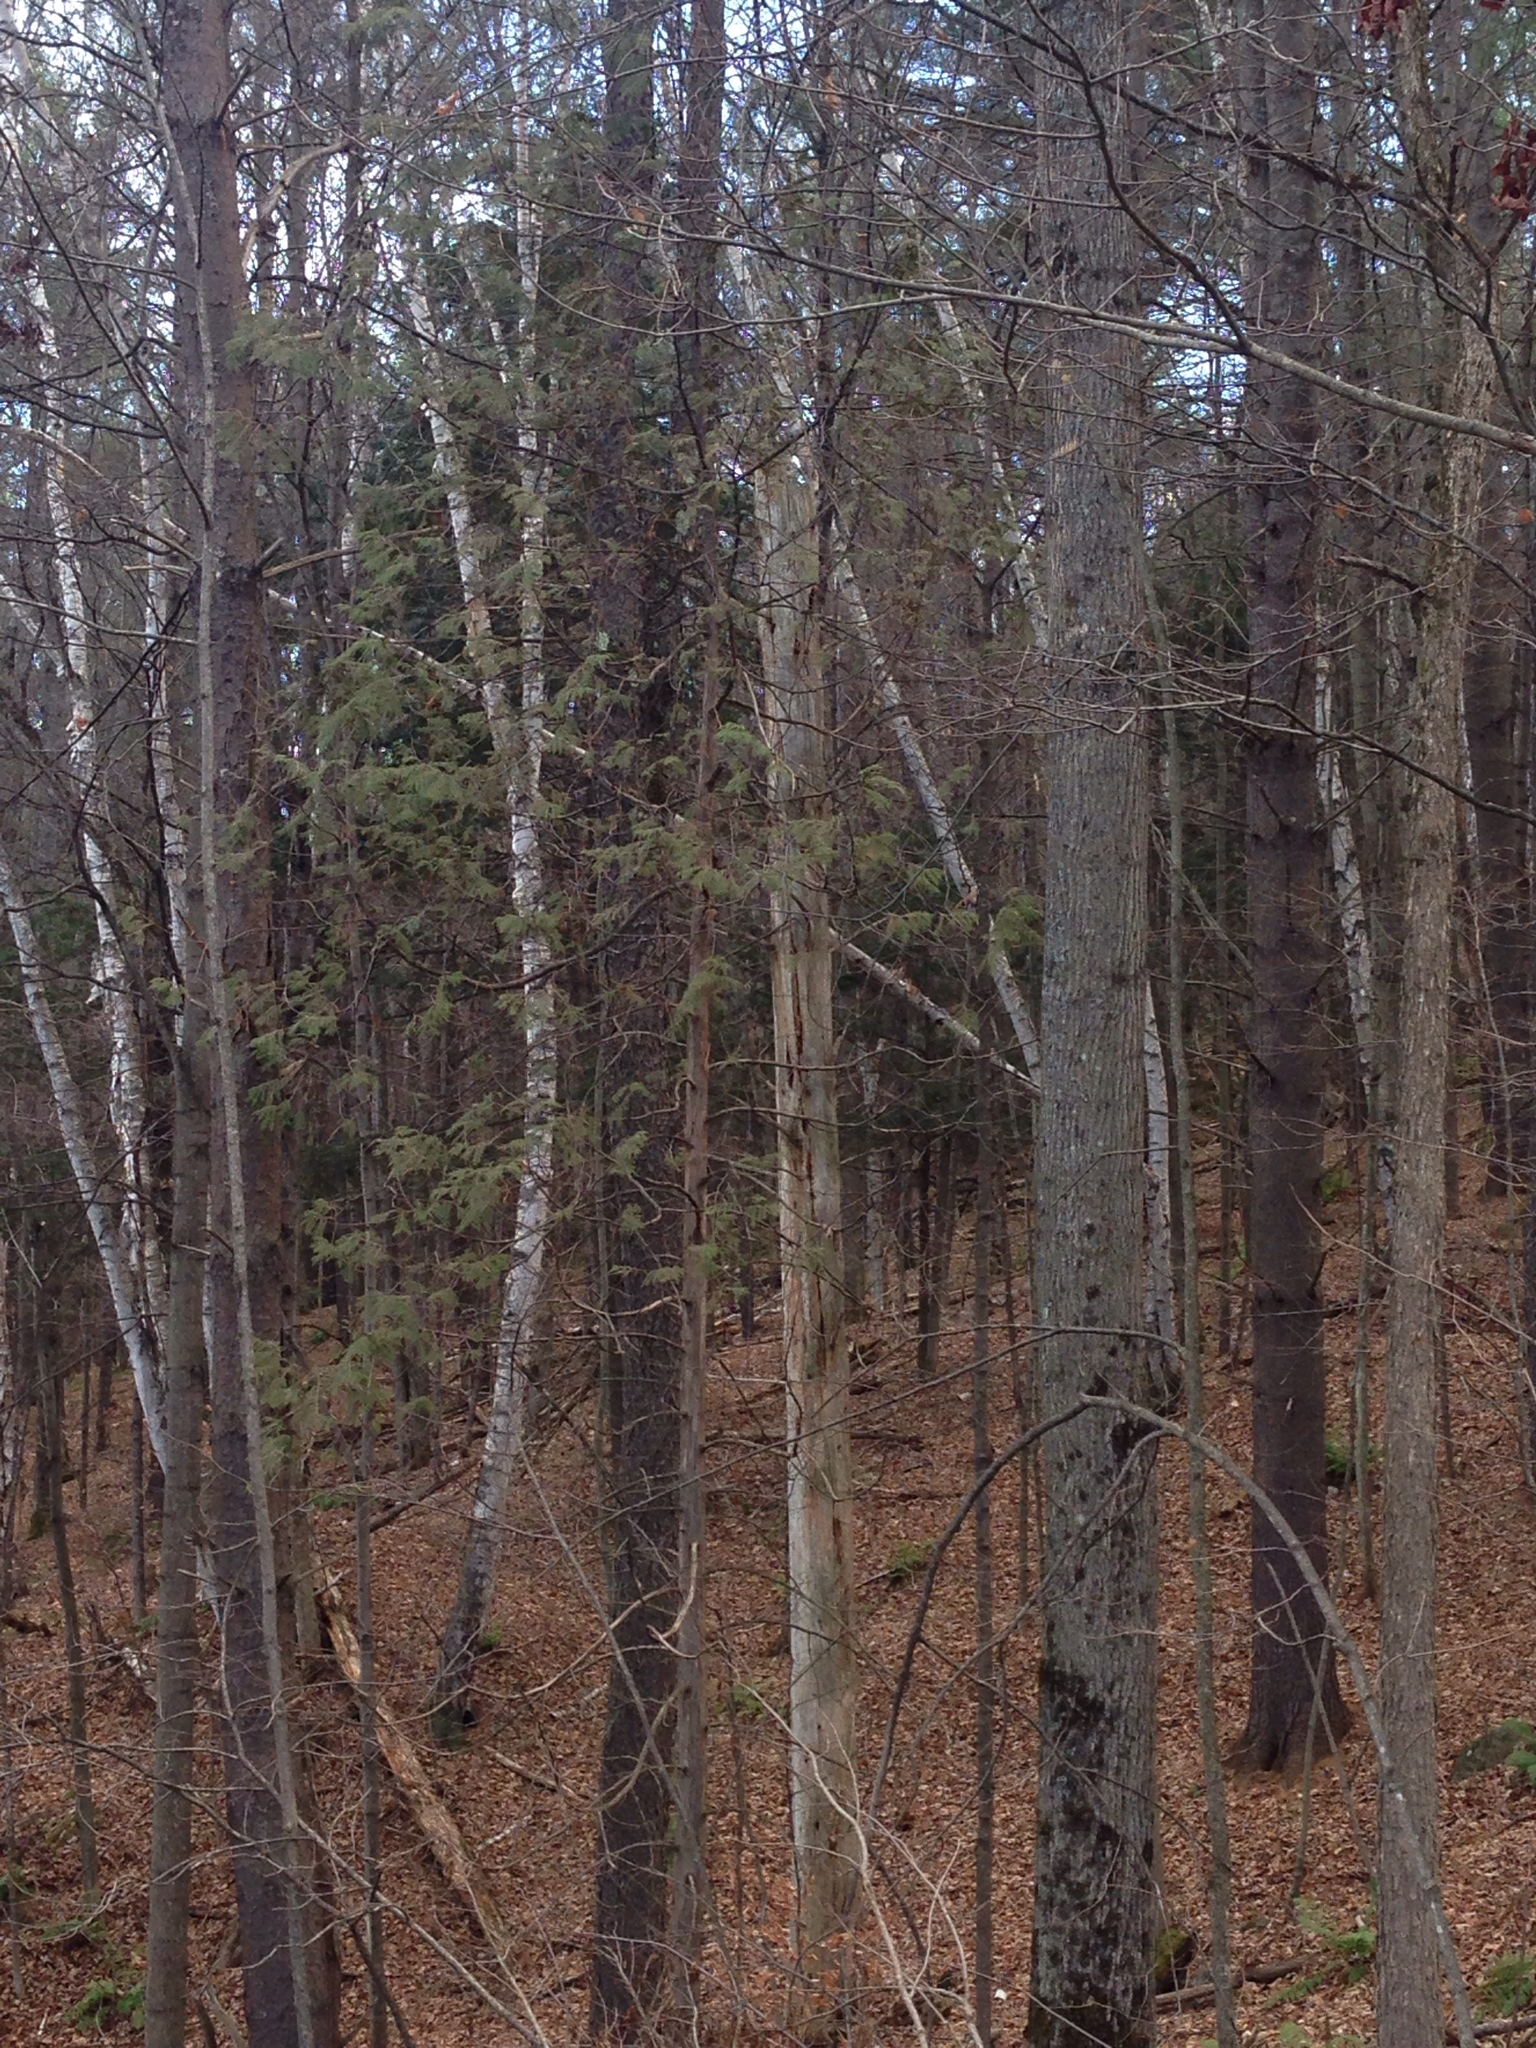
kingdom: Plantae
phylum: Tracheophyta
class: Pinopsida
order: Pinales
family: Cupressaceae
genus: Thuja
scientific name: Thuja occidentalis
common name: Northern white-cedar
